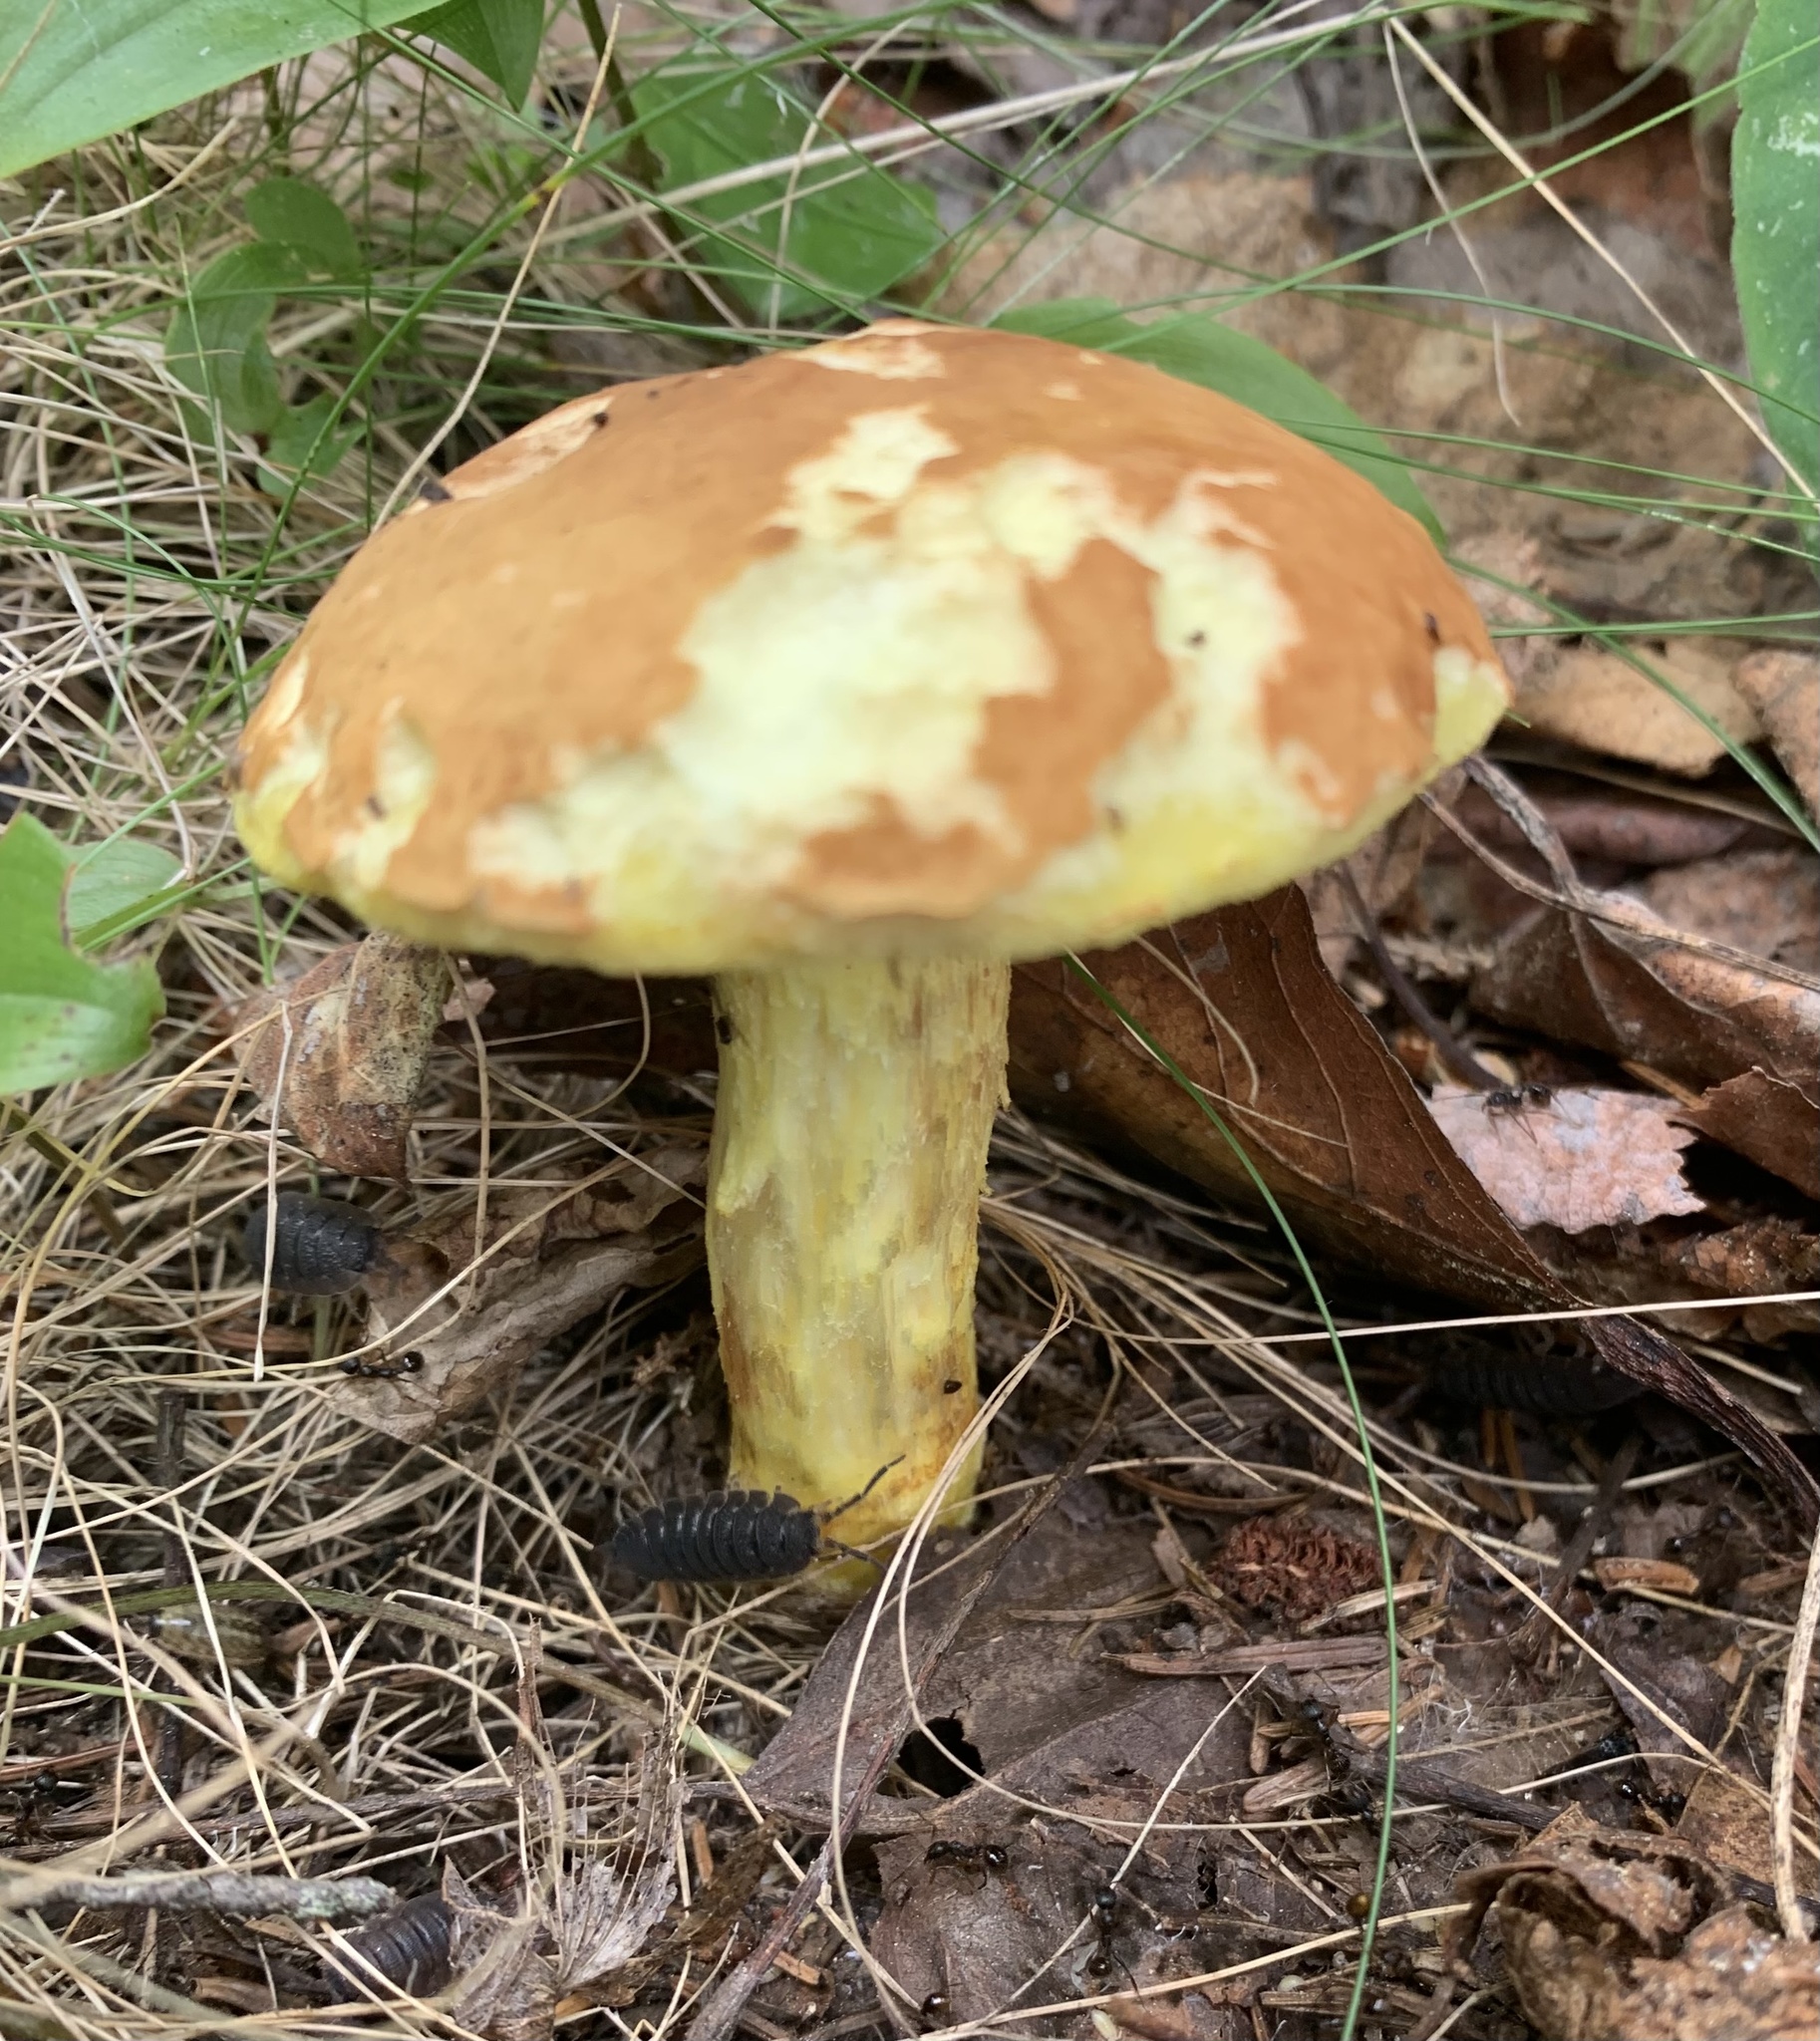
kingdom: Fungi
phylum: Basidiomycota
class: Agaricomycetes
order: Boletales
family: Boletaceae
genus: Hemileccinum
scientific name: Hemileccinum subglabripes
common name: Smoothish-stemmed bolete
